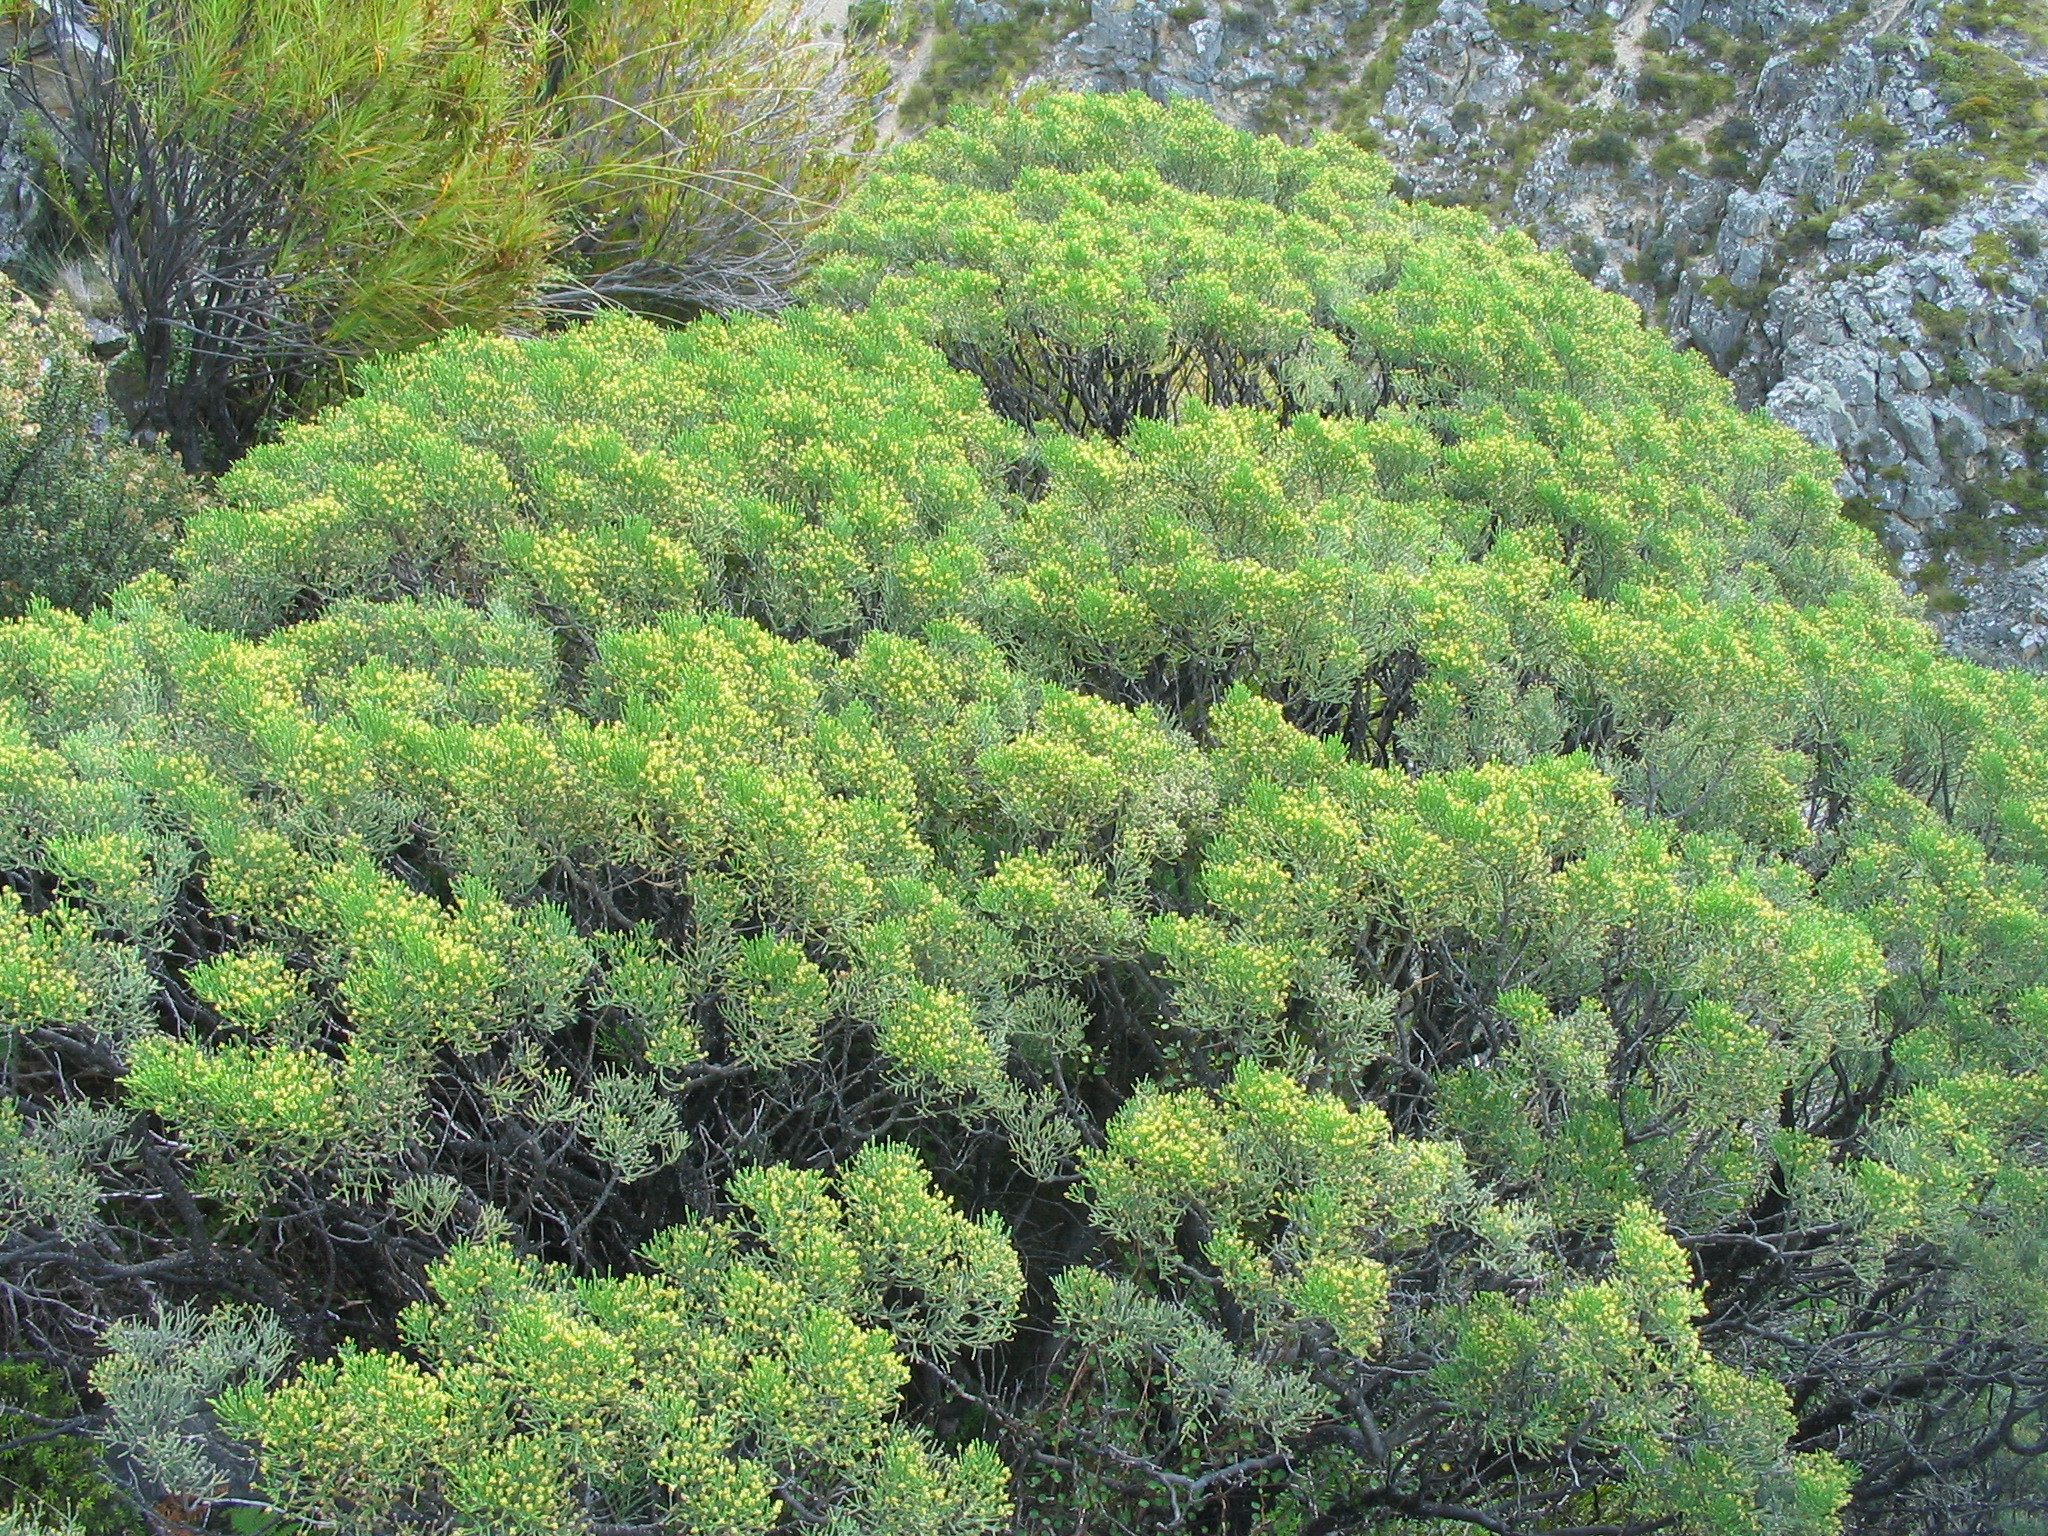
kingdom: Plantae
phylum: Tracheophyta
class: Magnoliopsida
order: Lamiales
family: Plantaginaceae
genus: Veronica
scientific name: Veronica cupressoides
